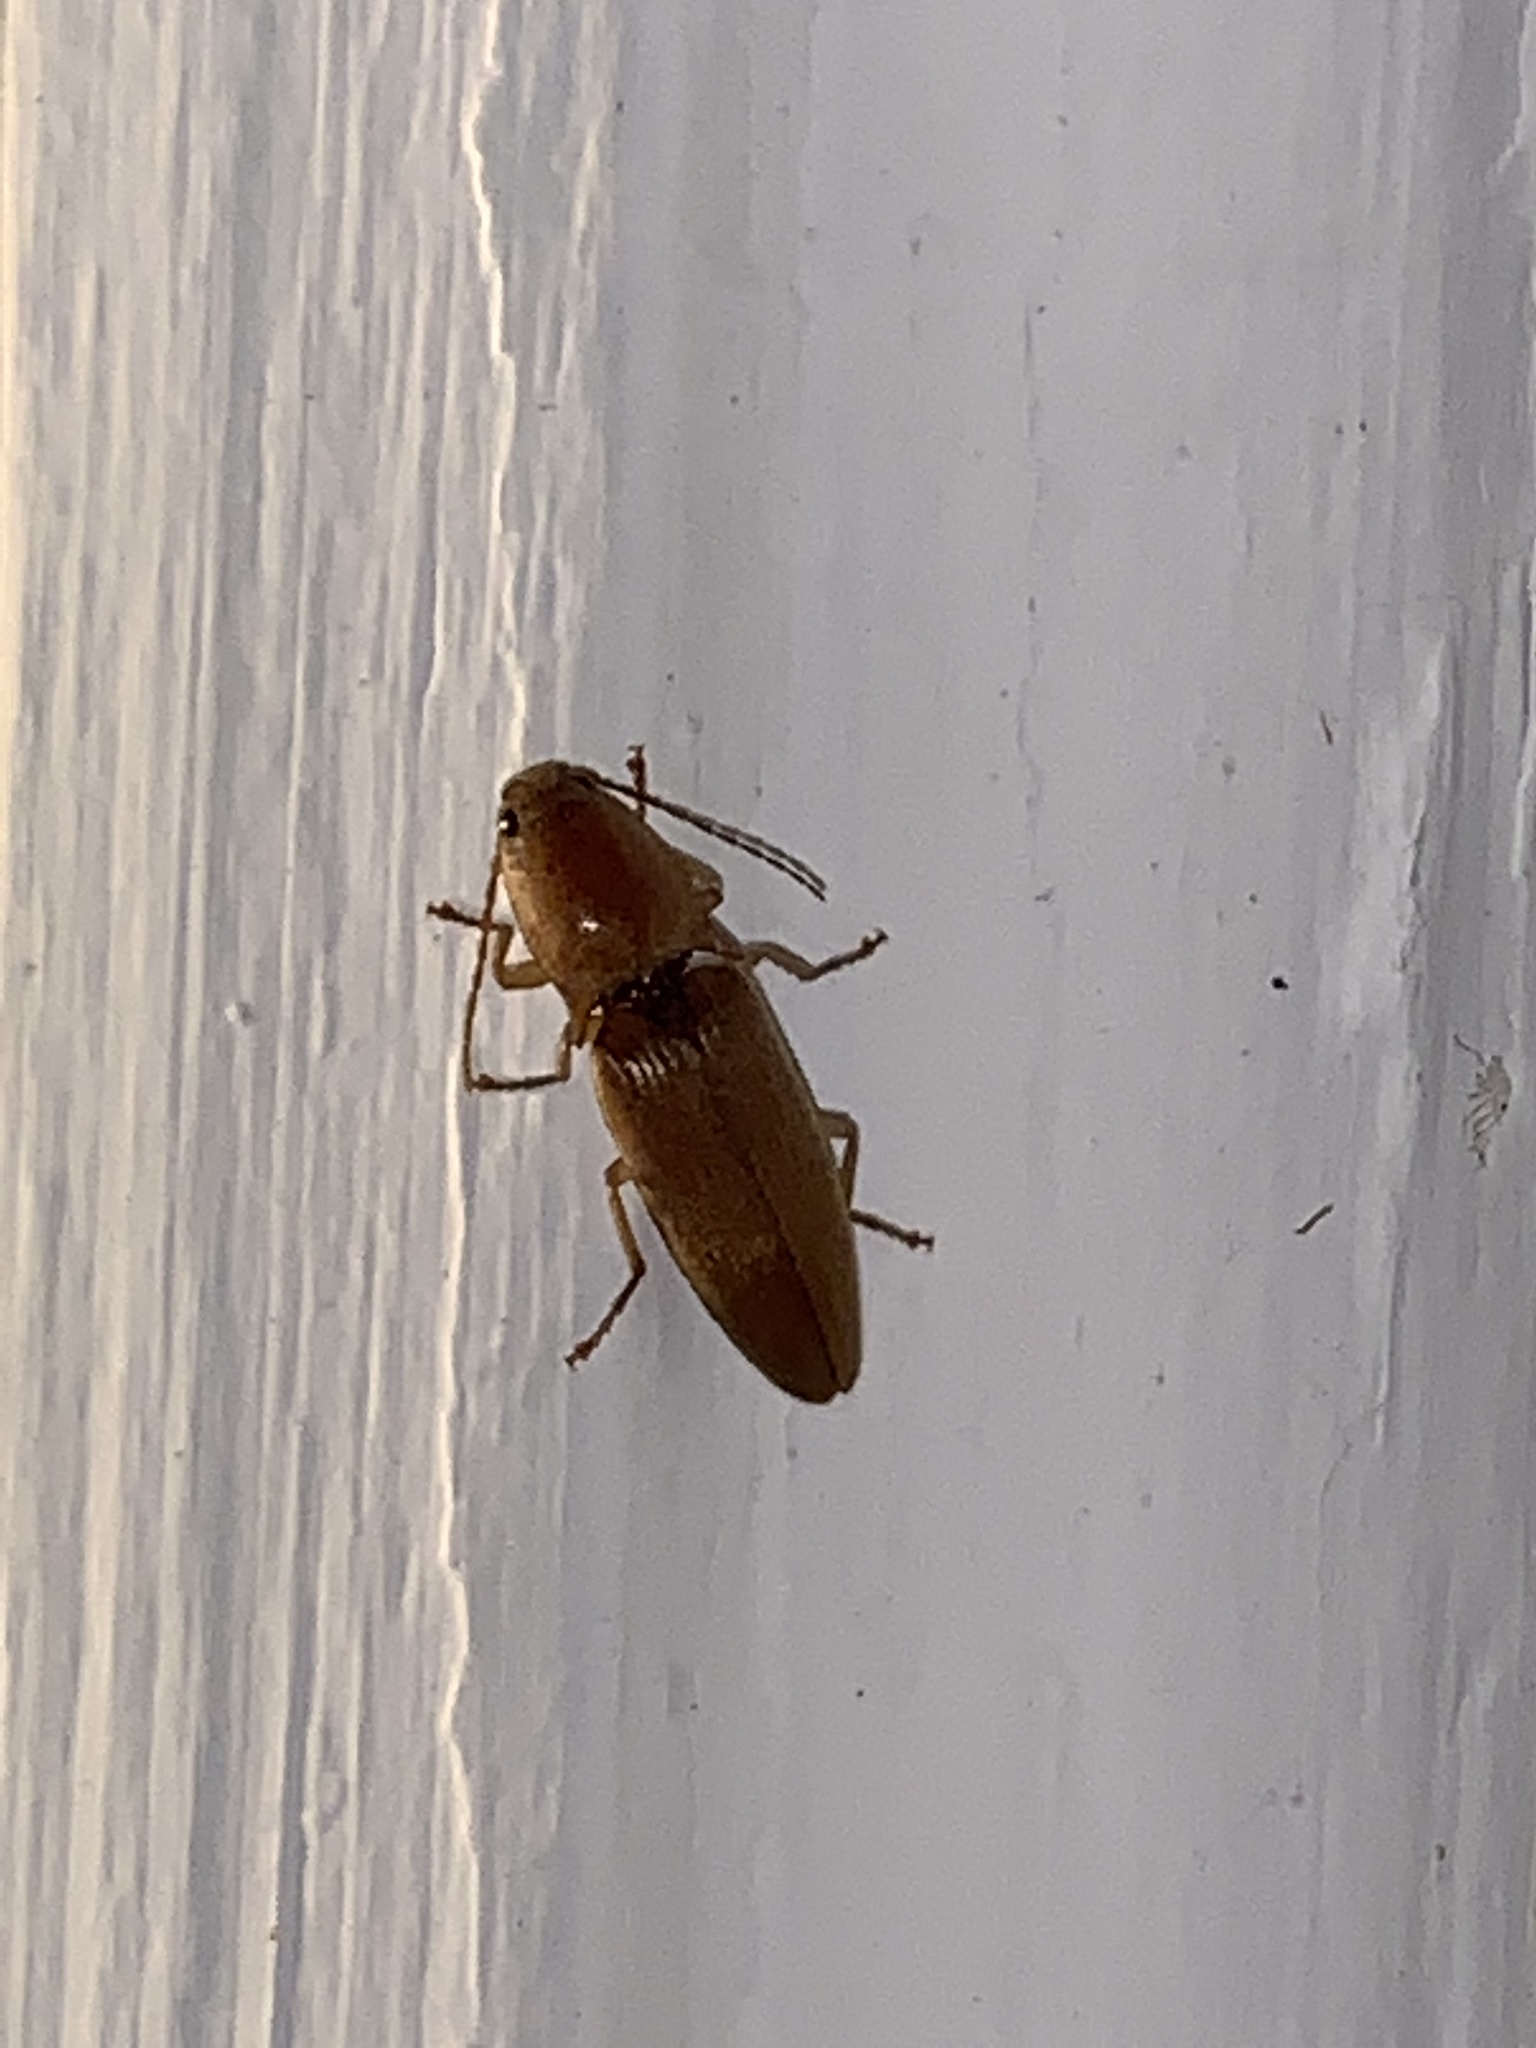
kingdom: Animalia
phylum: Arthropoda
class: Insecta
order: Coleoptera
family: Elateridae
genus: Monocrepidius
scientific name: Monocrepidius lividus
